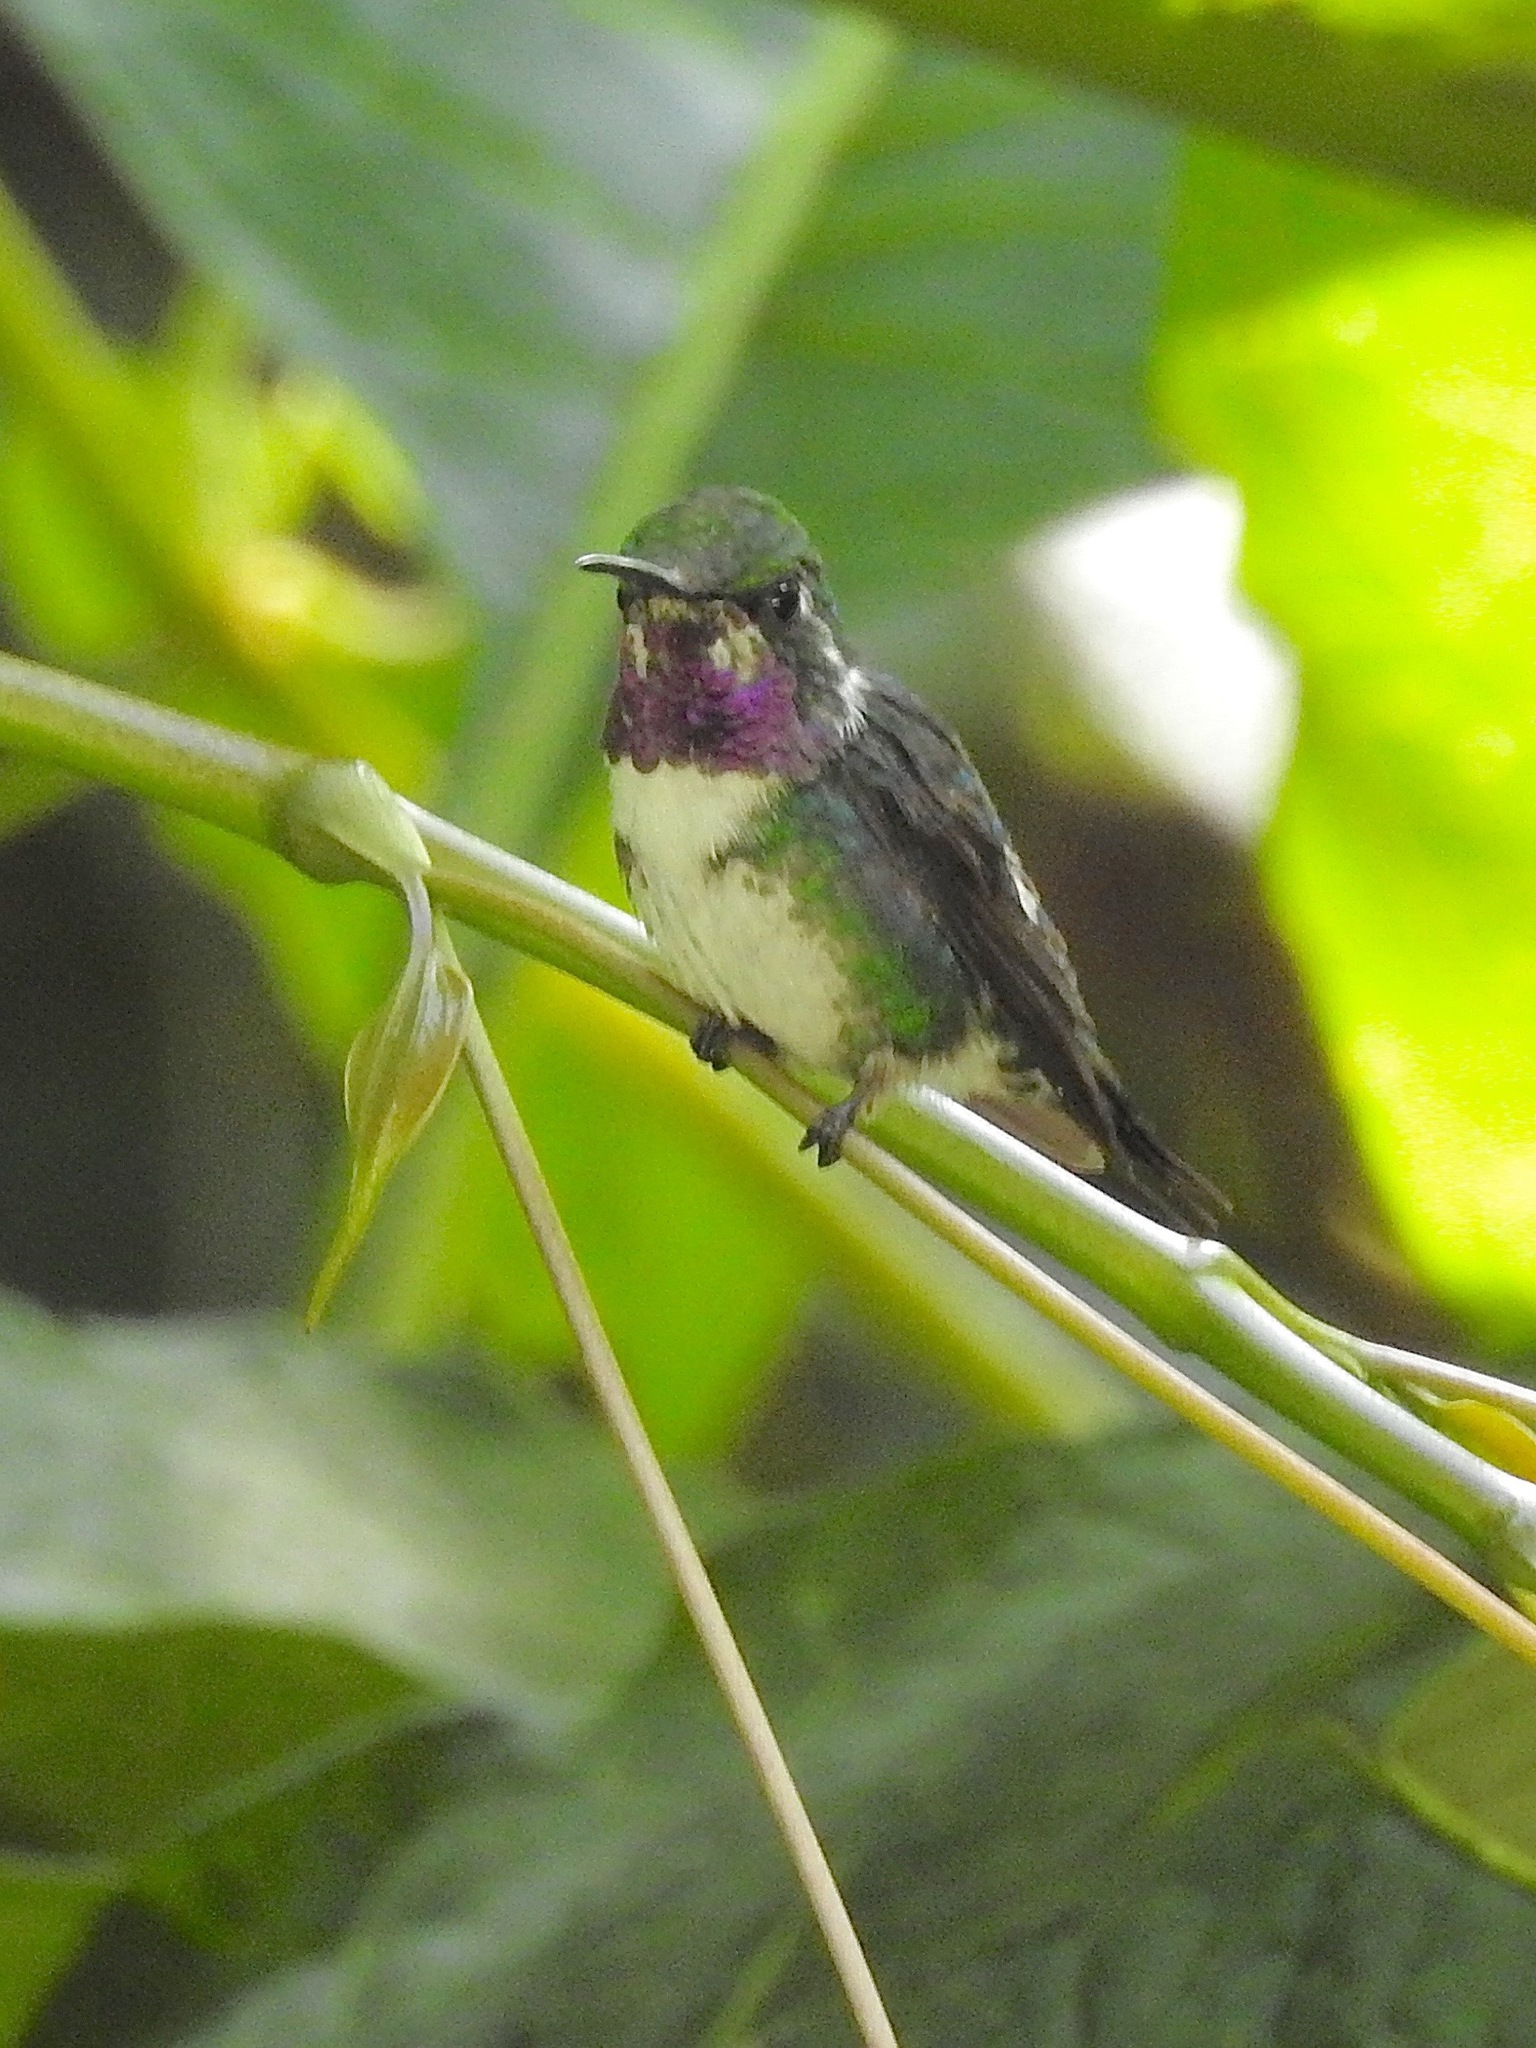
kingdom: Animalia
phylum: Chordata
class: Aves
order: Apodiformes
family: Trochilidae
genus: Chaetocercus
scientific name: Chaetocercus mulsant
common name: White-bellied woodstar
